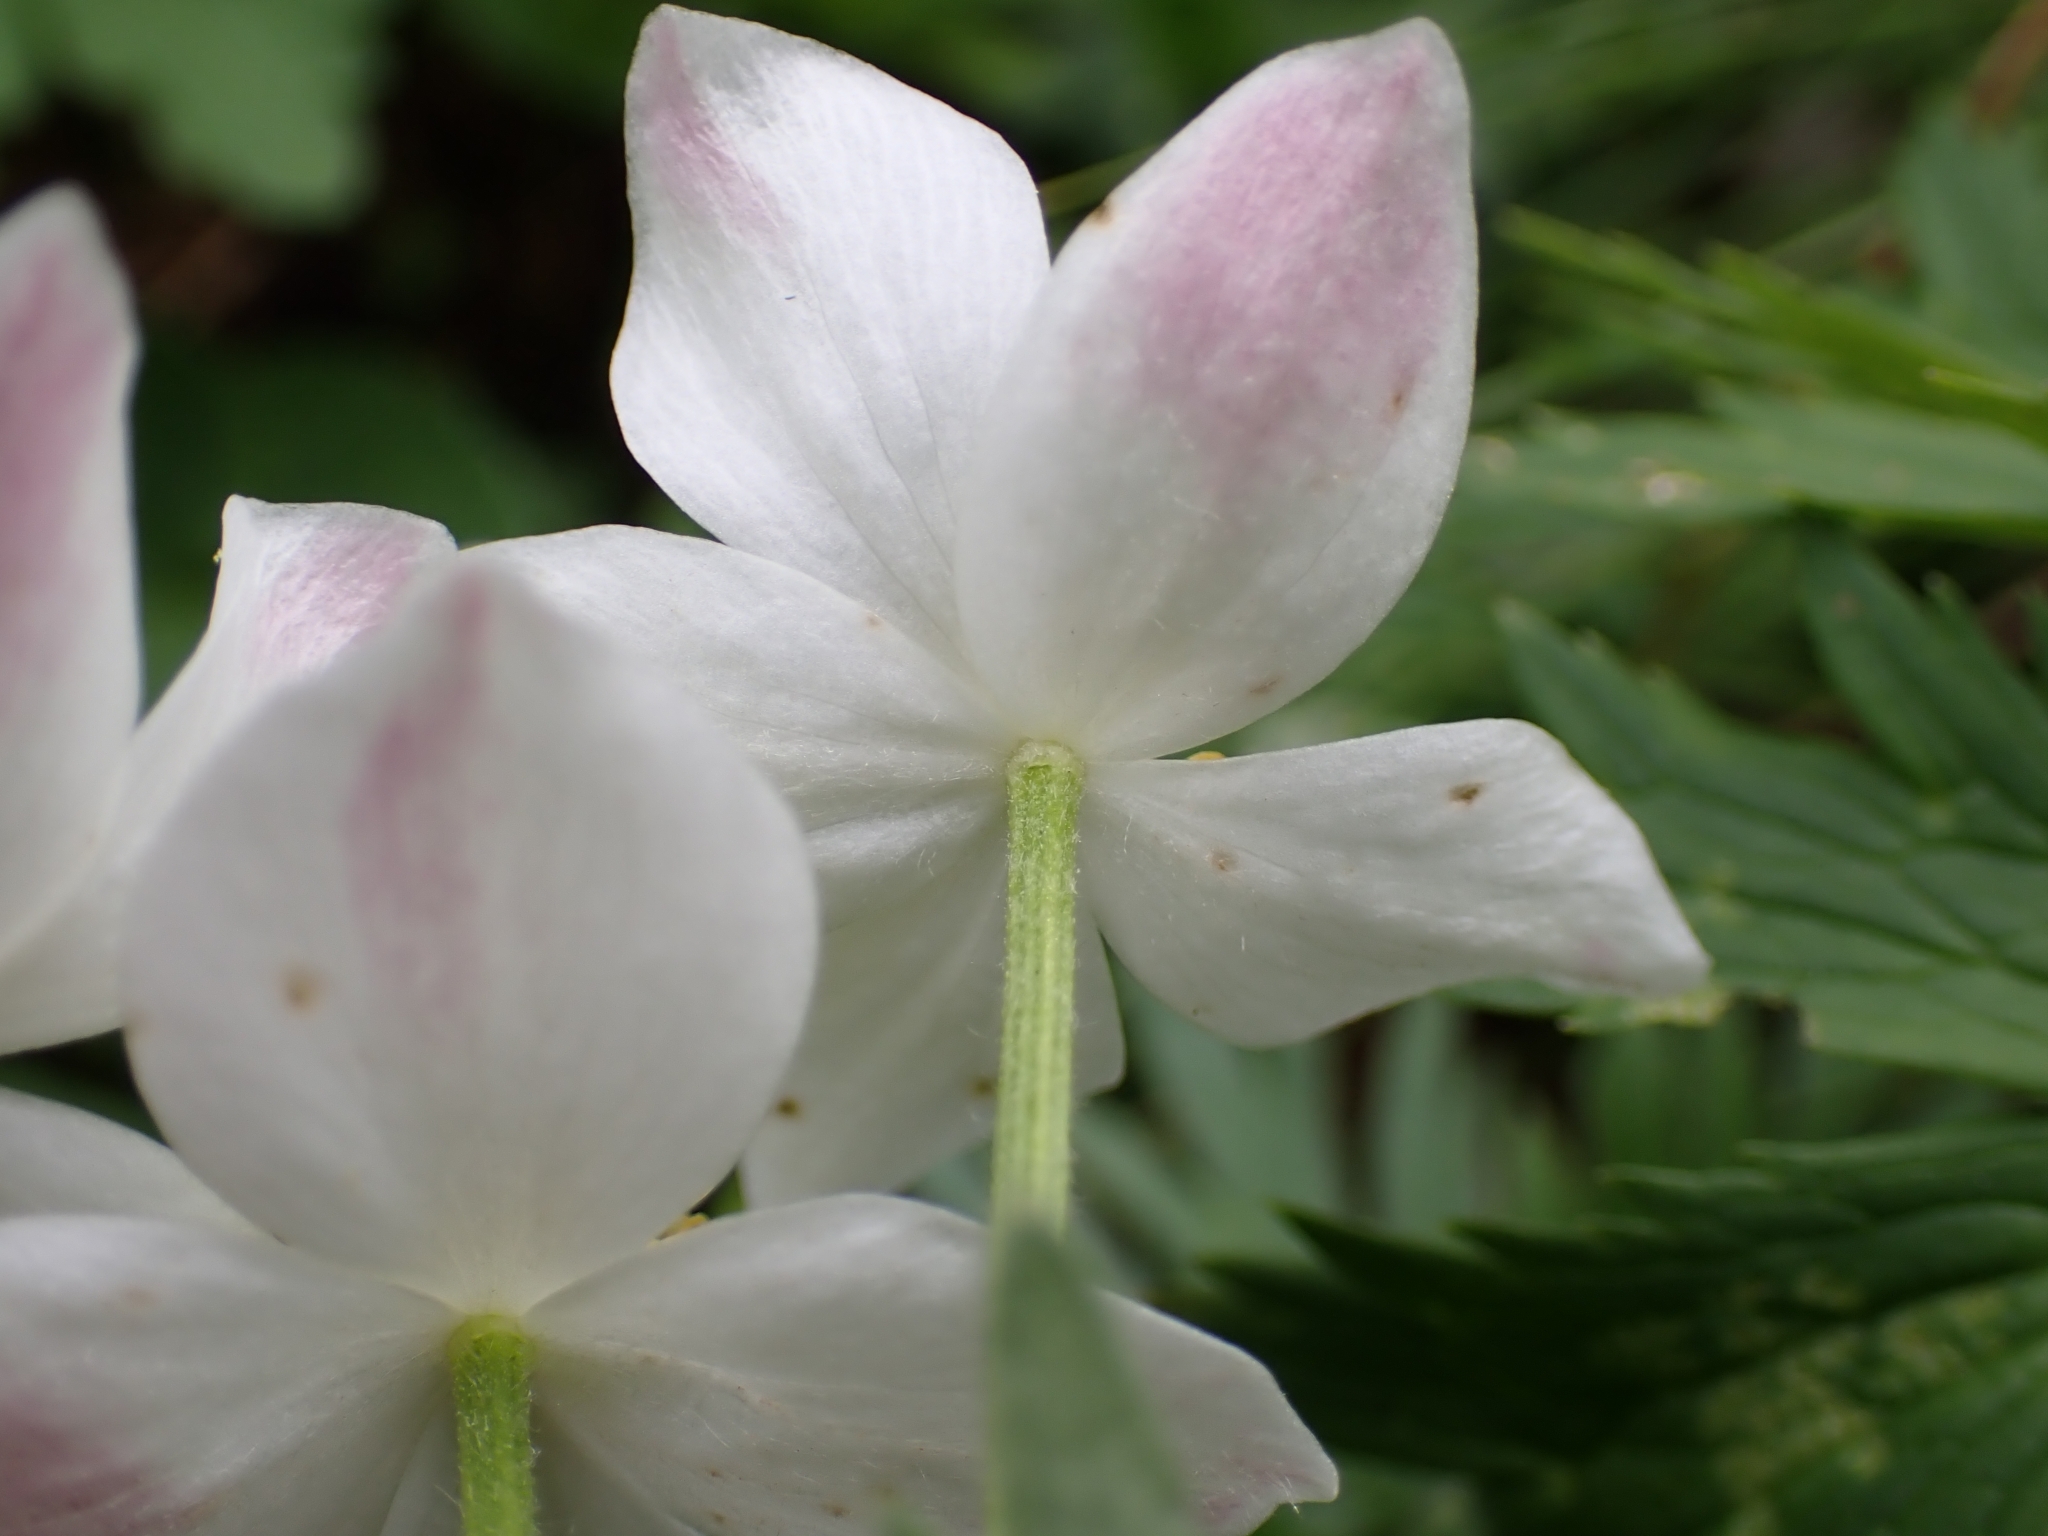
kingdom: Plantae
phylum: Tracheophyta
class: Magnoliopsida
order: Ranunculales
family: Ranunculaceae
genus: Anemonastrum
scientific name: Anemonastrum narcissiflorum
